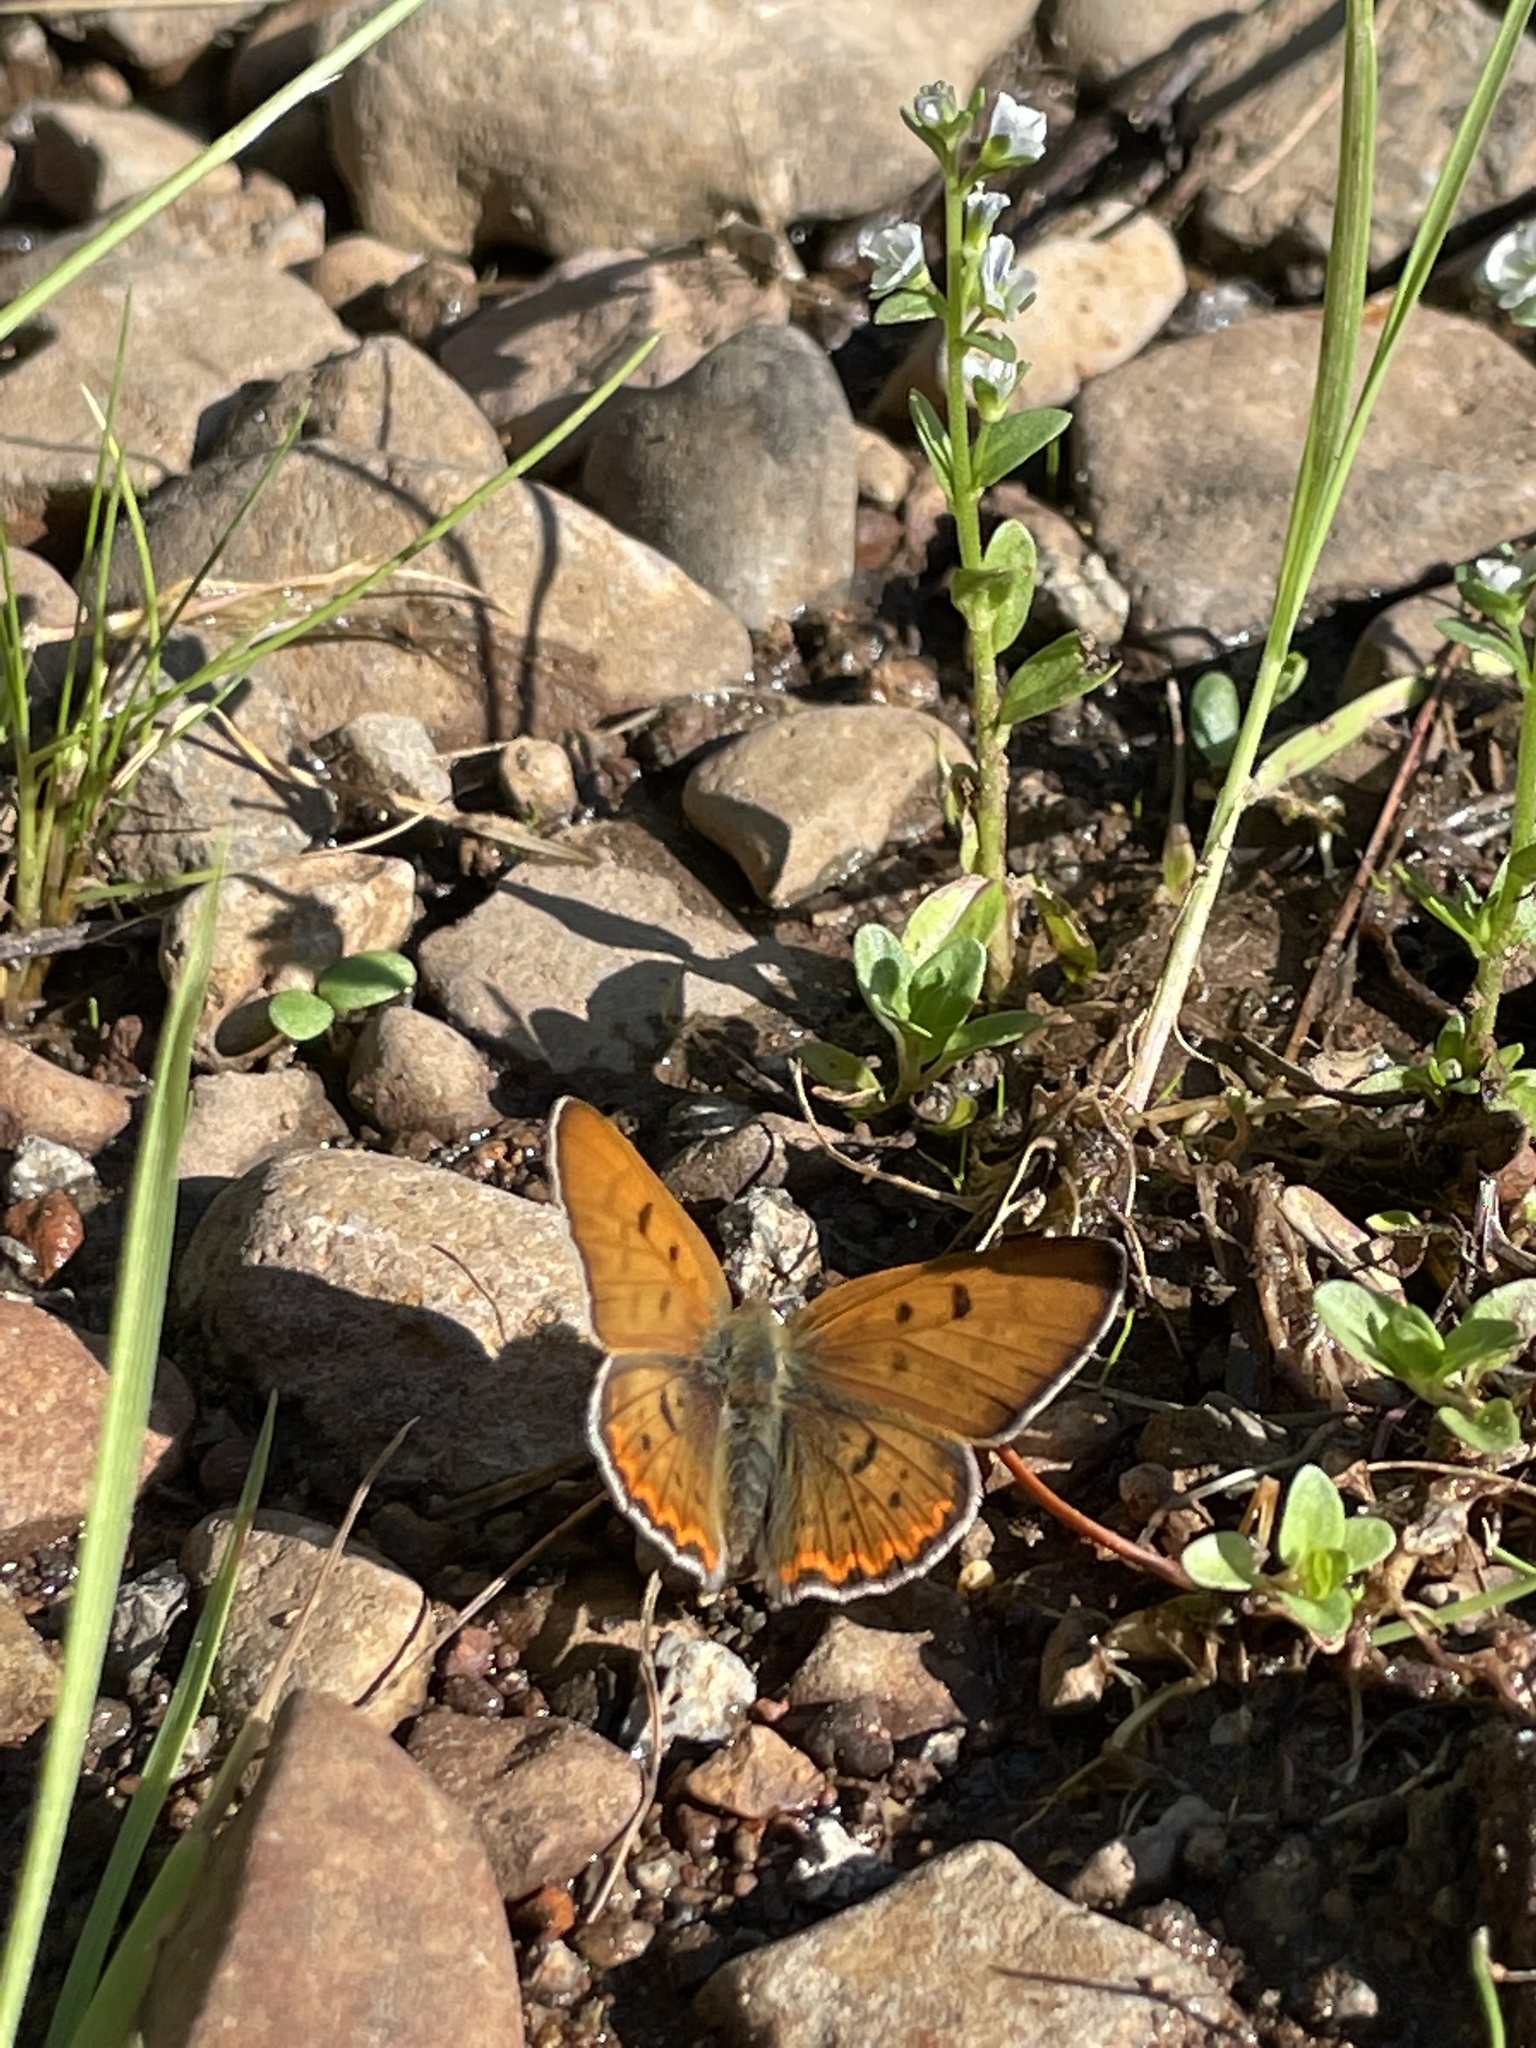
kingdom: Animalia
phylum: Arthropoda
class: Insecta
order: Lepidoptera
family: Lycaenidae
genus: Tharsalea
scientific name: Tharsalea nivalis
